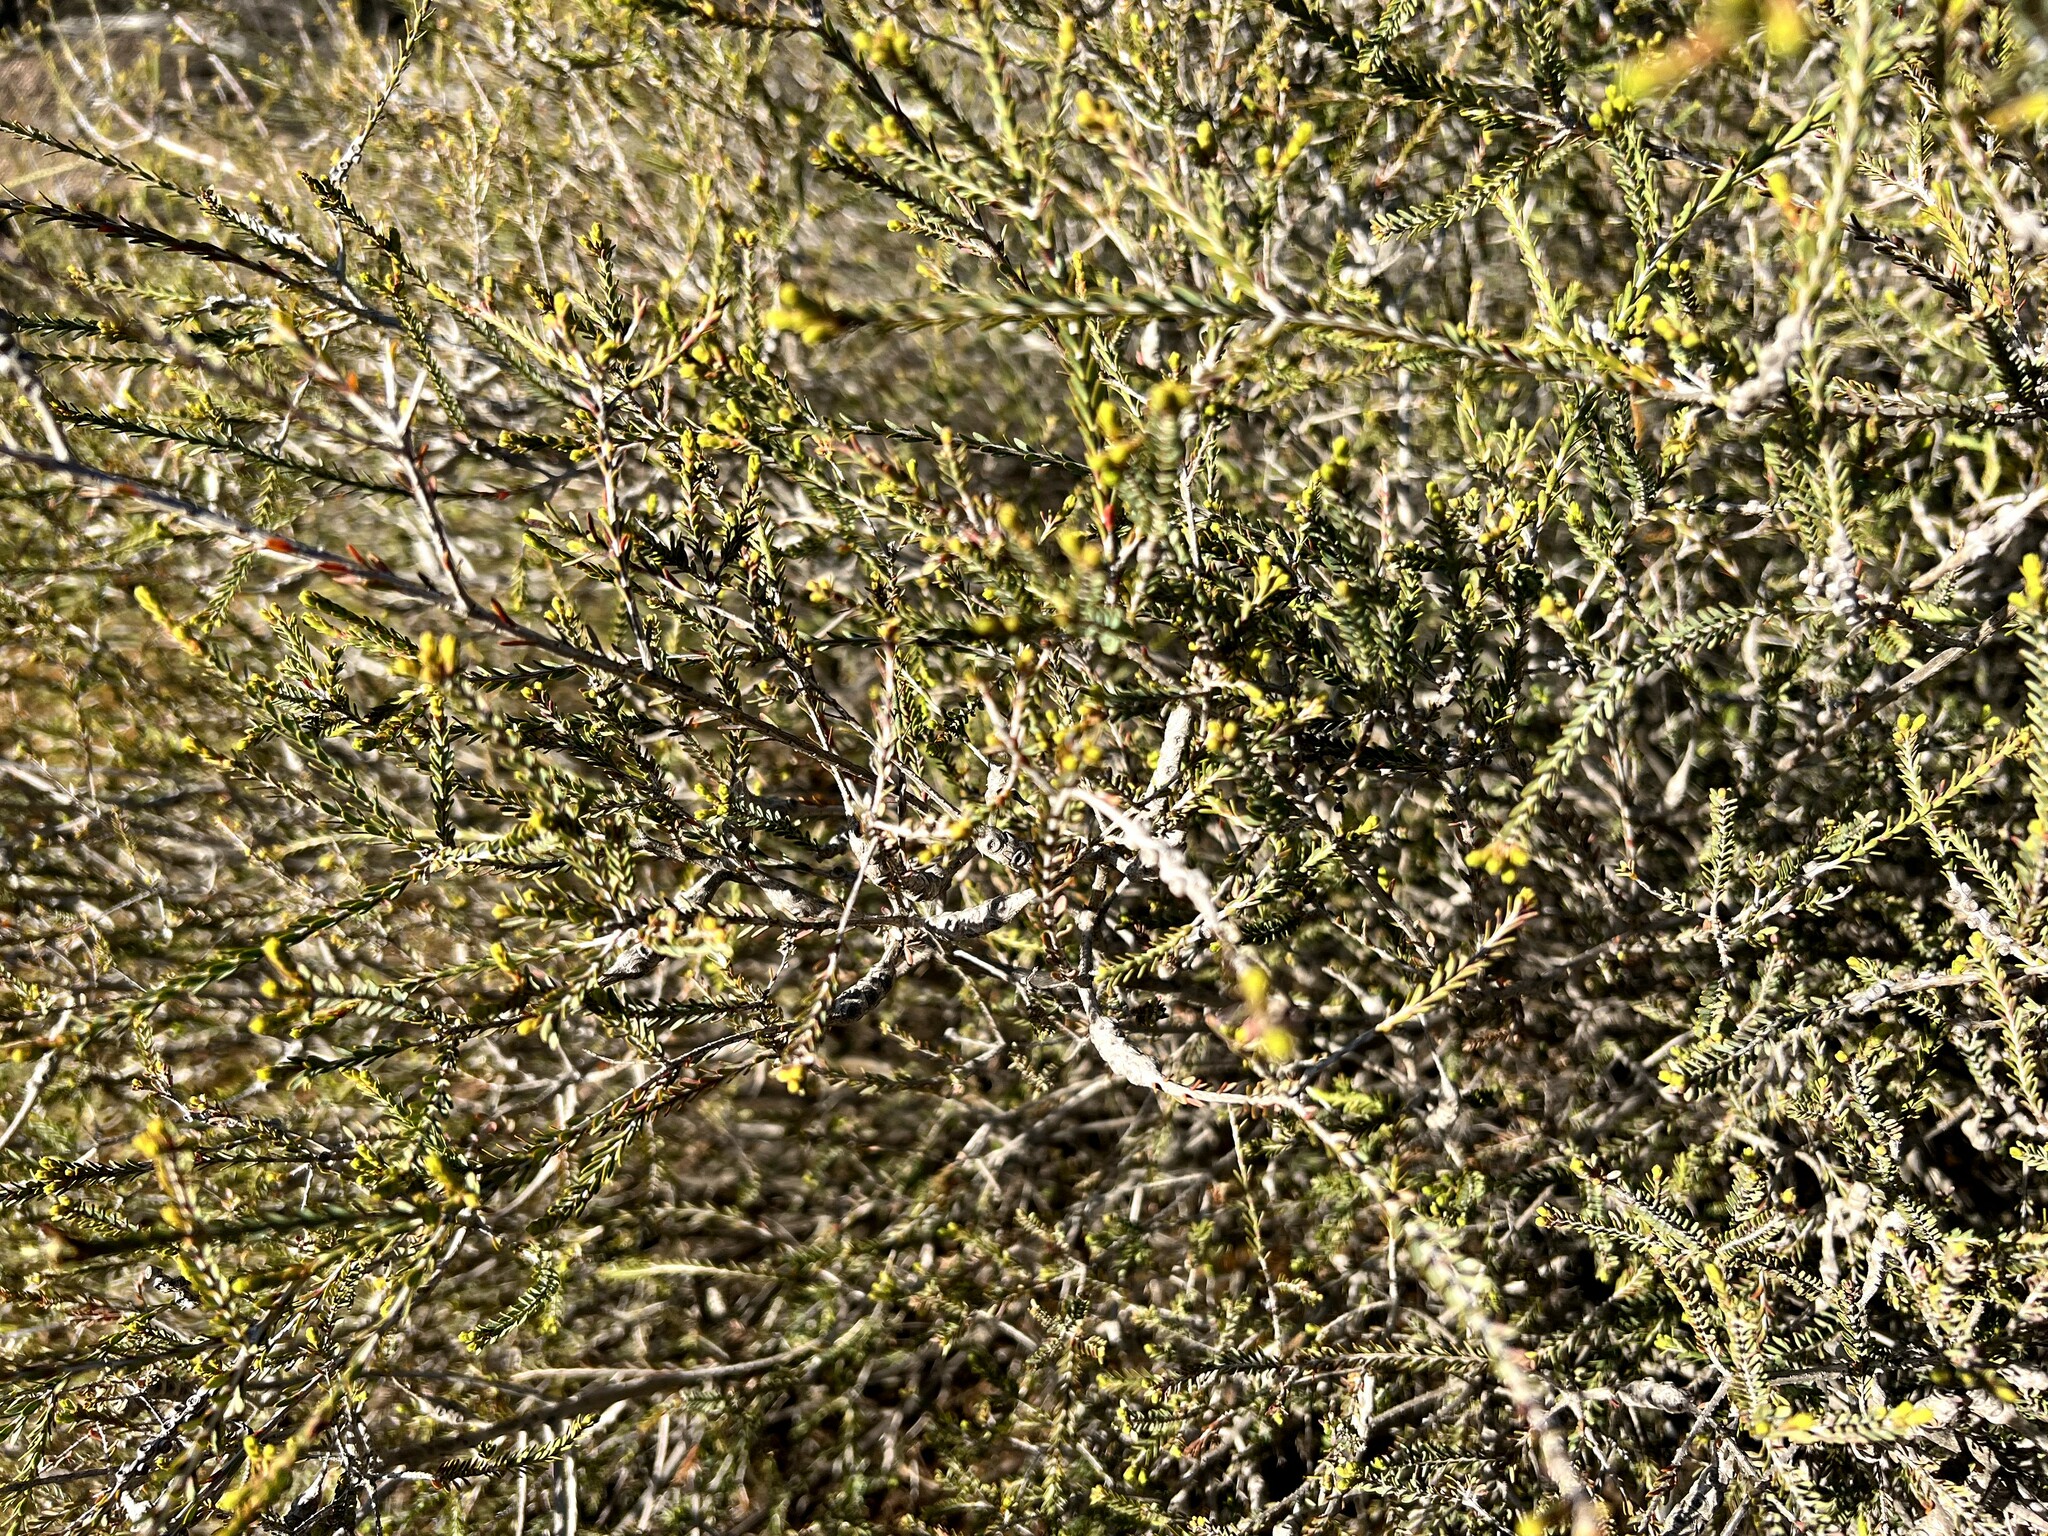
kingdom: Plantae
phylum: Tracheophyta
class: Magnoliopsida
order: Myrtales
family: Myrtaceae
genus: Melaleuca
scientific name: Melaleuca decussata
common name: Cross-leaf honey myrtle
